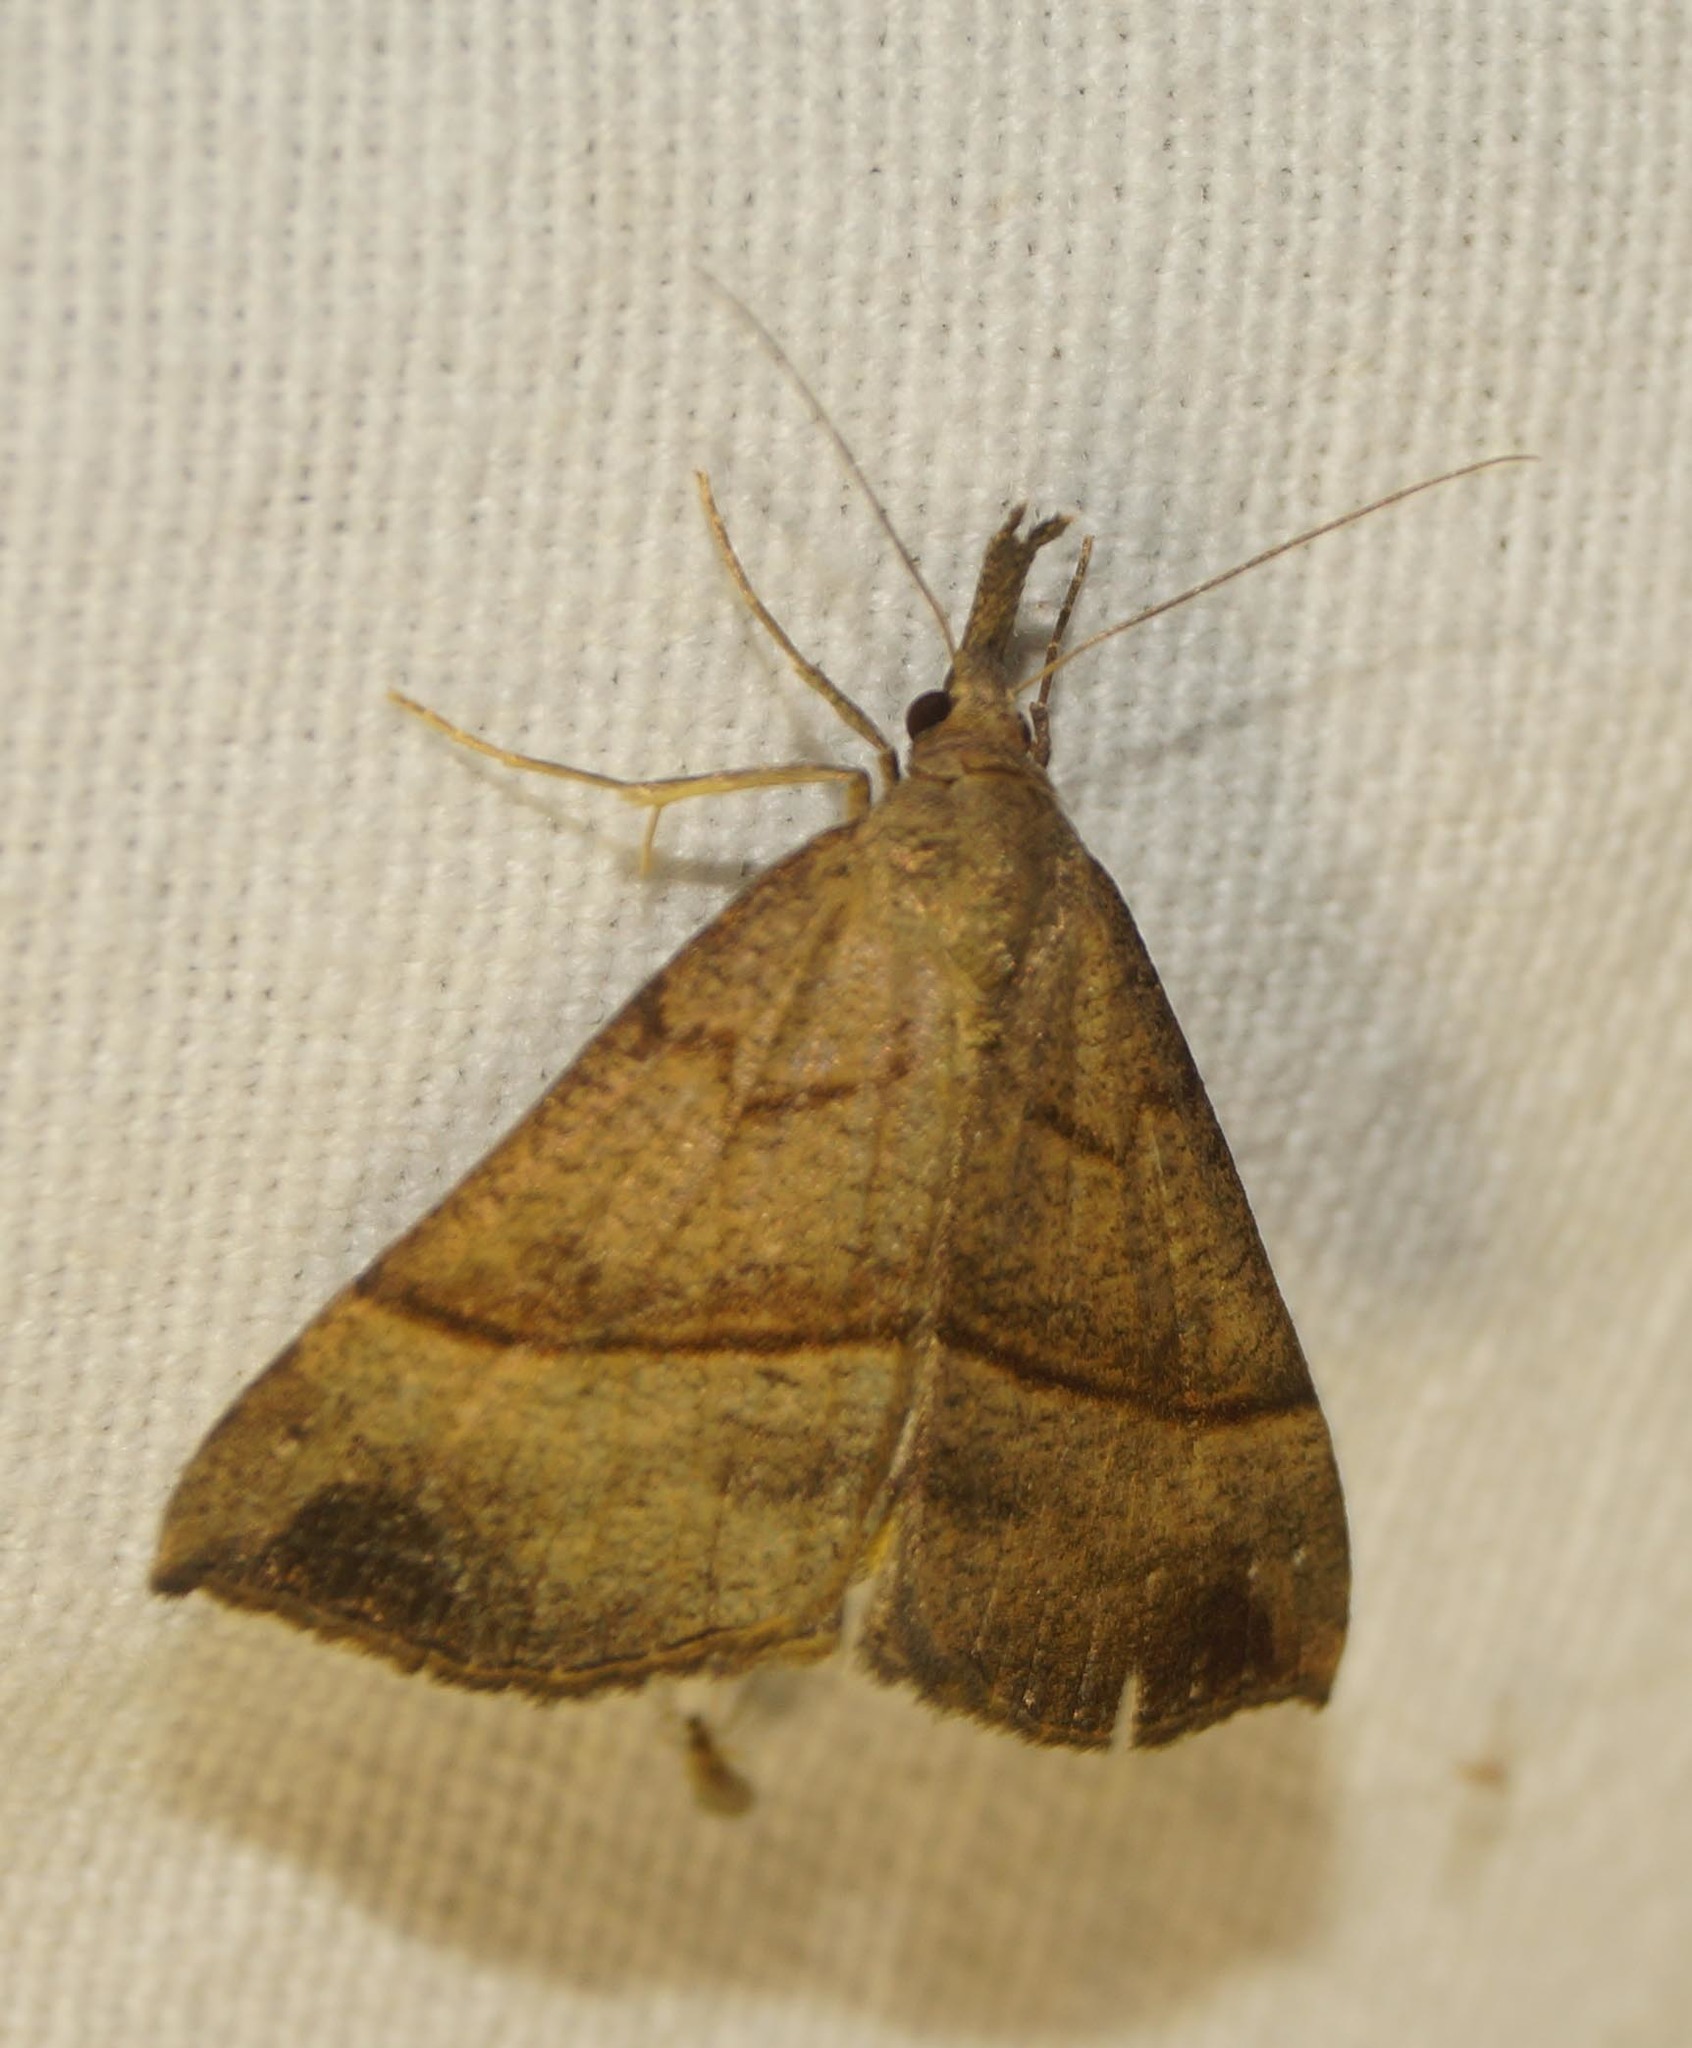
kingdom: Animalia
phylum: Arthropoda
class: Insecta
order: Lepidoptera
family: Erebidae
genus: Hypena
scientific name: Hypena proboscidalis
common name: Snout
